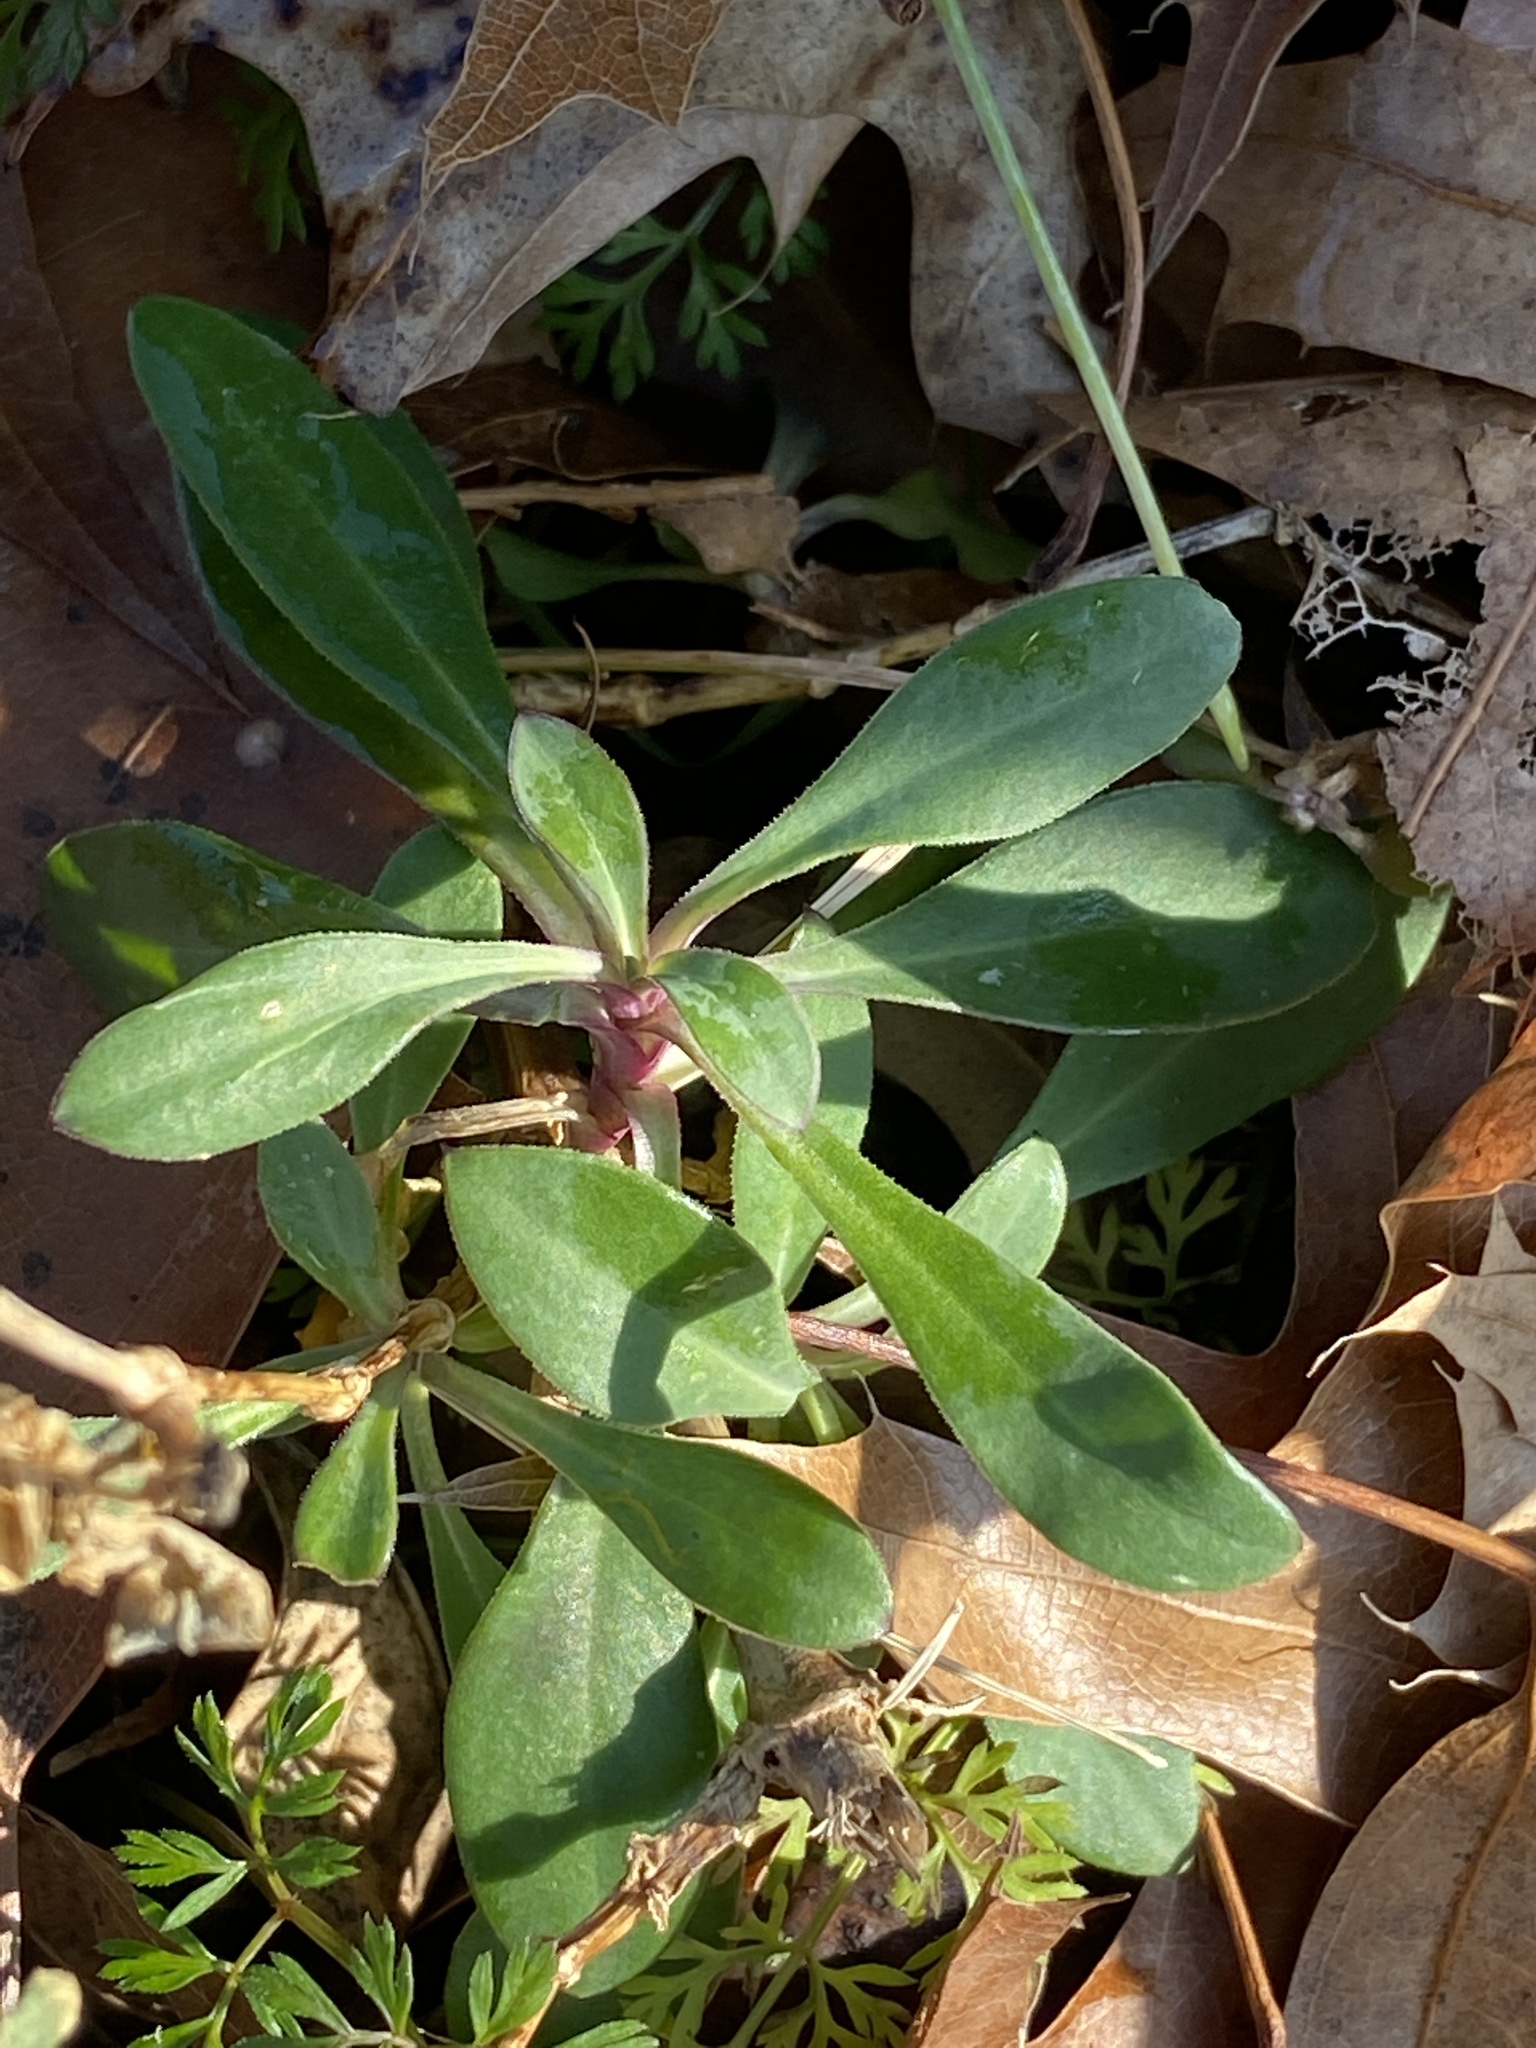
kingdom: Plantae
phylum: Tracheophyta
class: Magnoliopsida
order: Caryophyllales
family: Caryophyllaceae
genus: Silene
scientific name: Silene vulgaris
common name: Bladder campion
